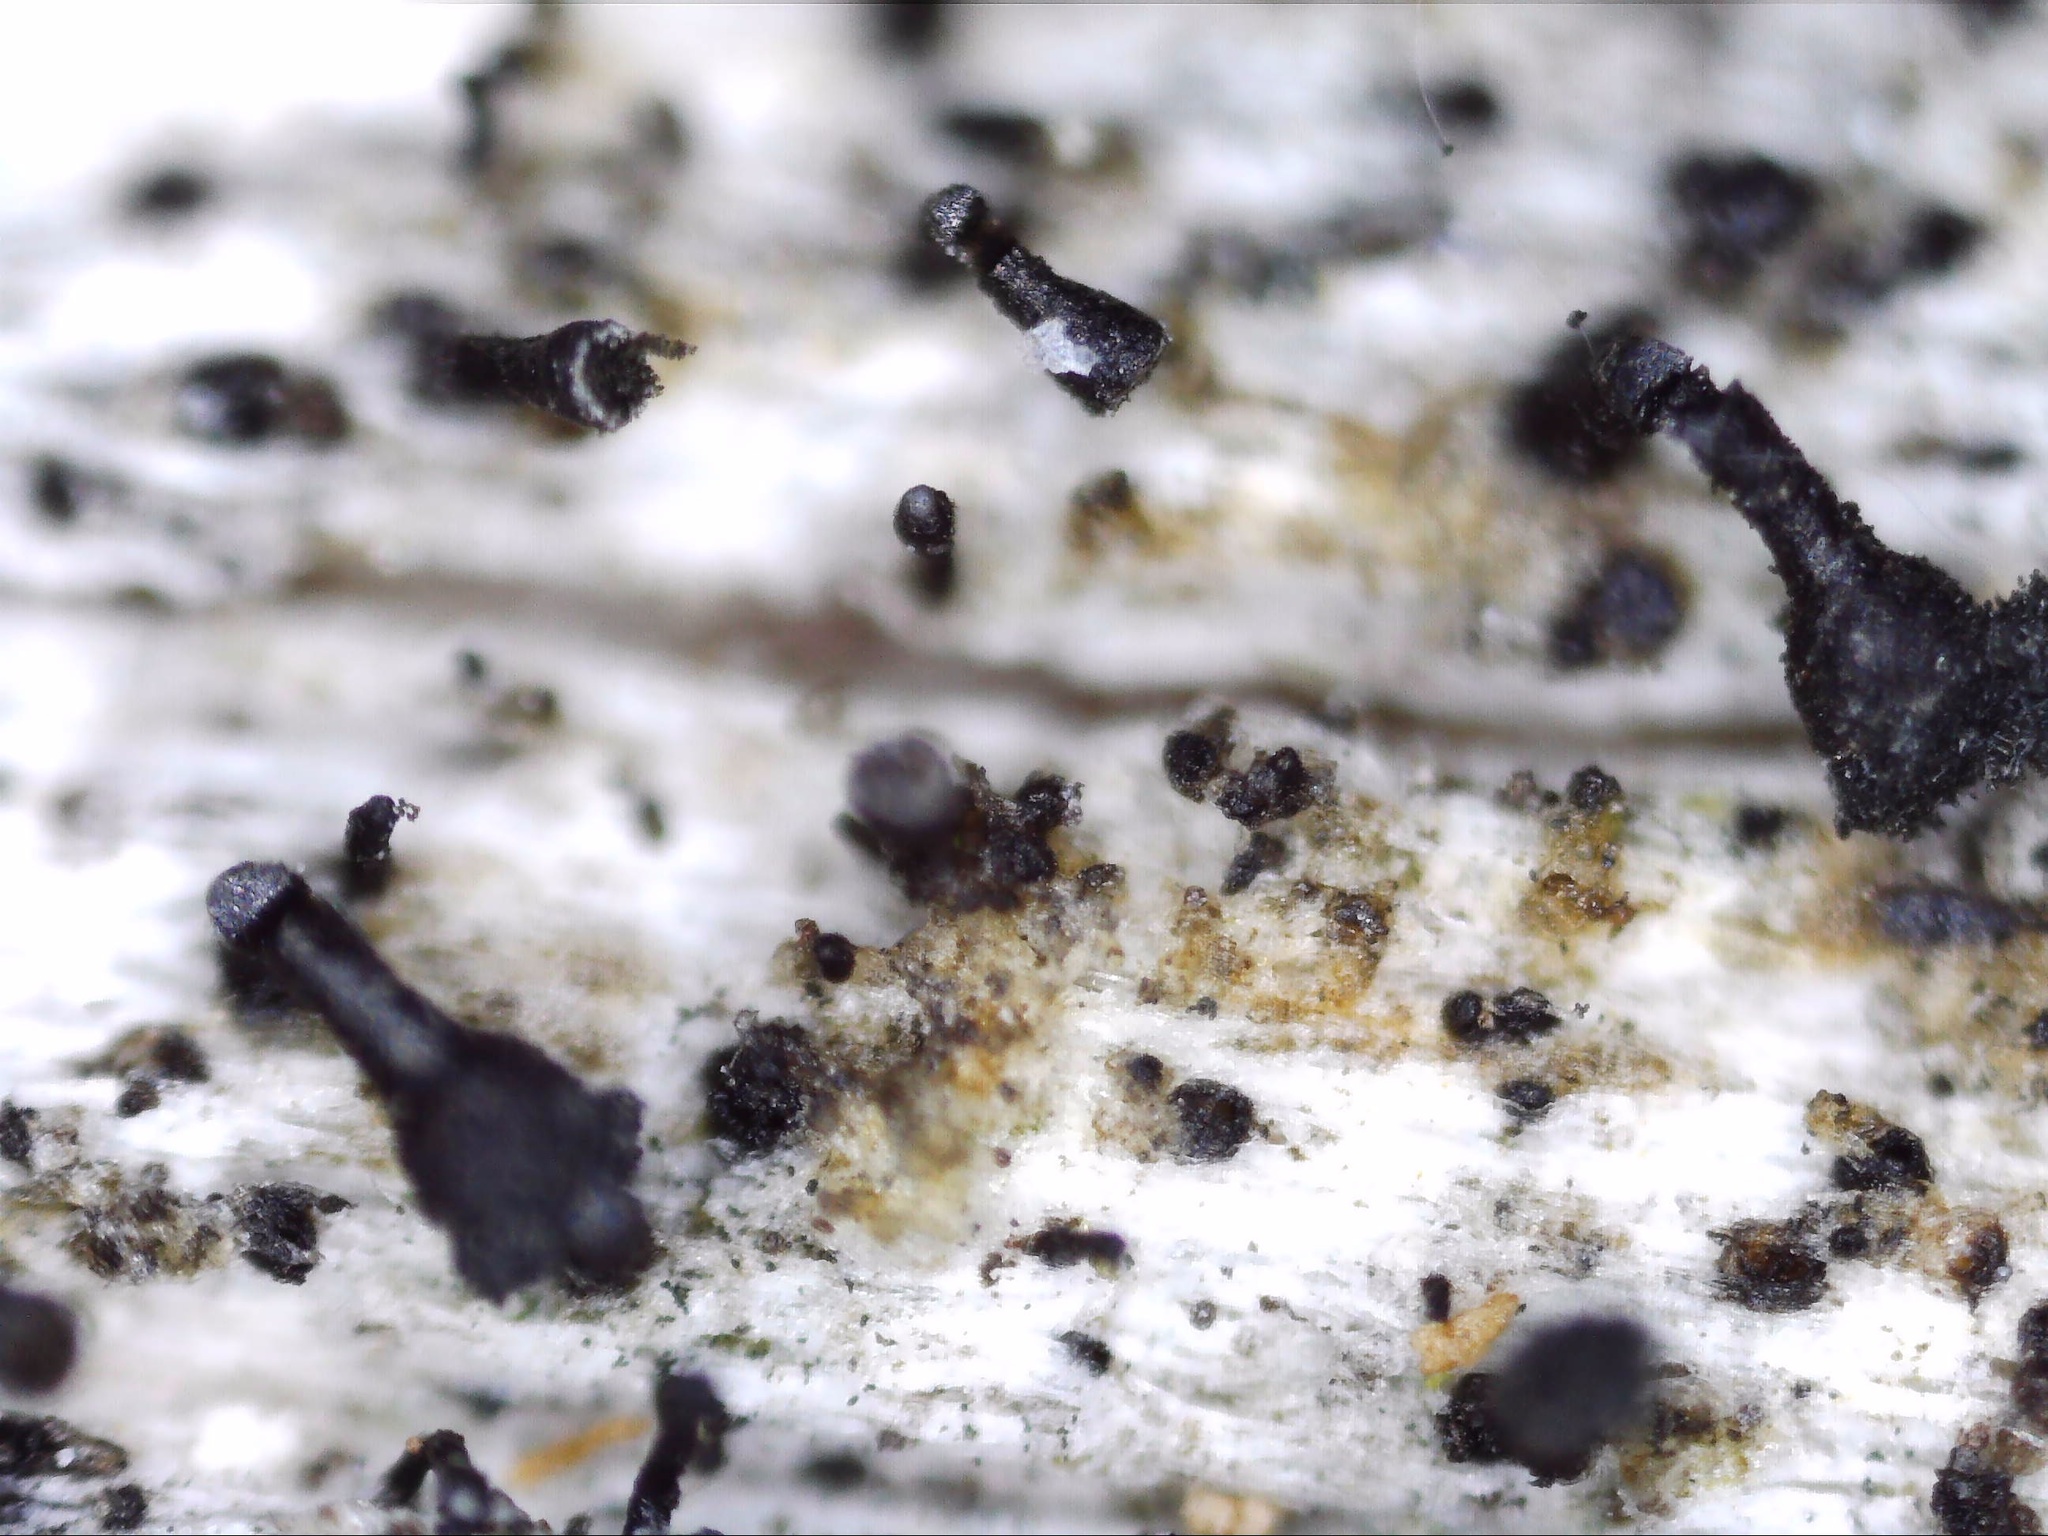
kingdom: Fungi
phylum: Ascomycota
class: Lecanoromycetes
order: Caliciales
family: Caliciaceae
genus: Calicium
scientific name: Calicium glaucellum
